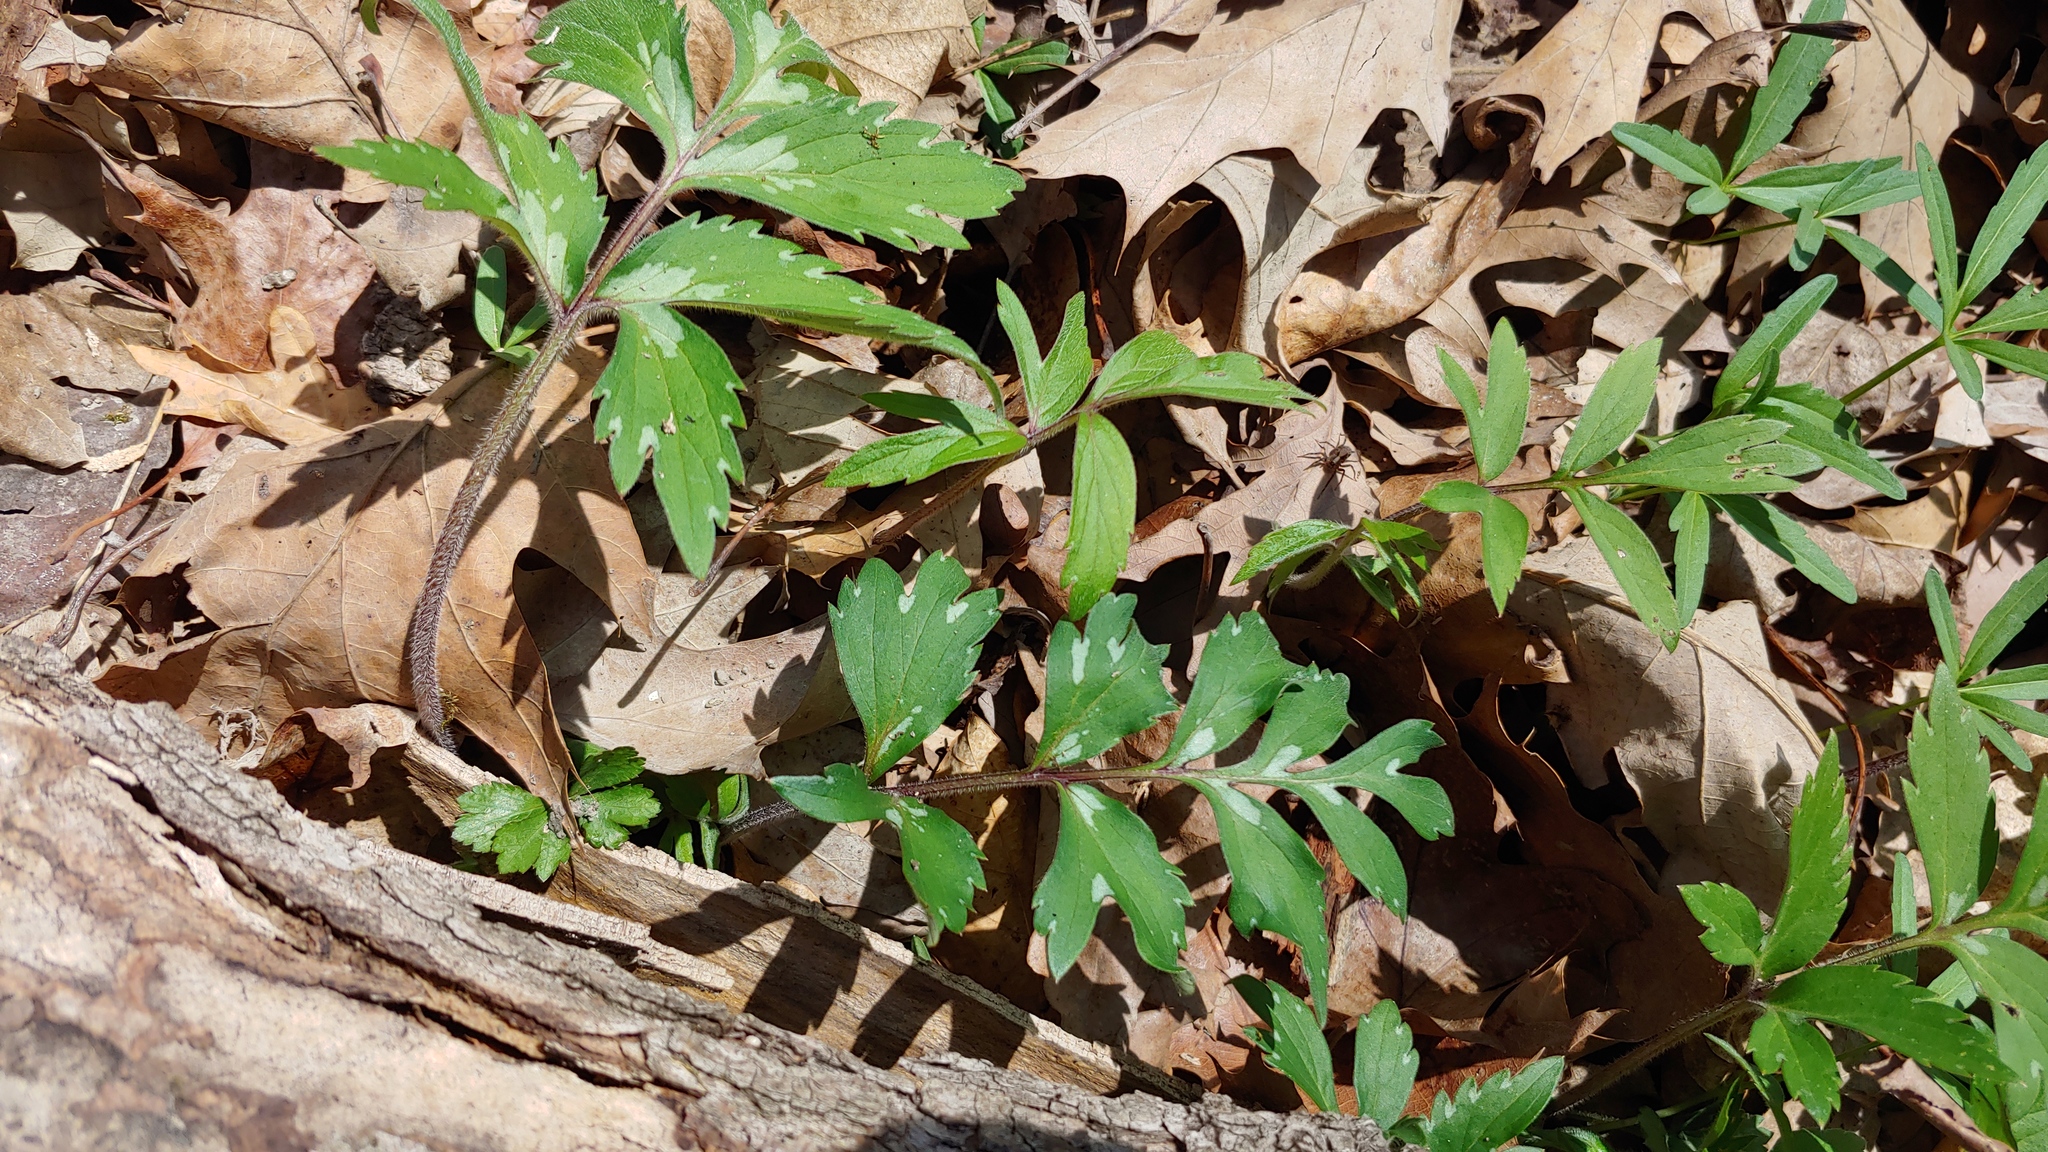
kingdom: Plantae
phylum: Tracheophyta
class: Magnoliopsida
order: Boraginales
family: Hydrophyllaceae
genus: Hydrophyllum
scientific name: Hydrophyllum virginianum
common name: Virginia waterleaf
